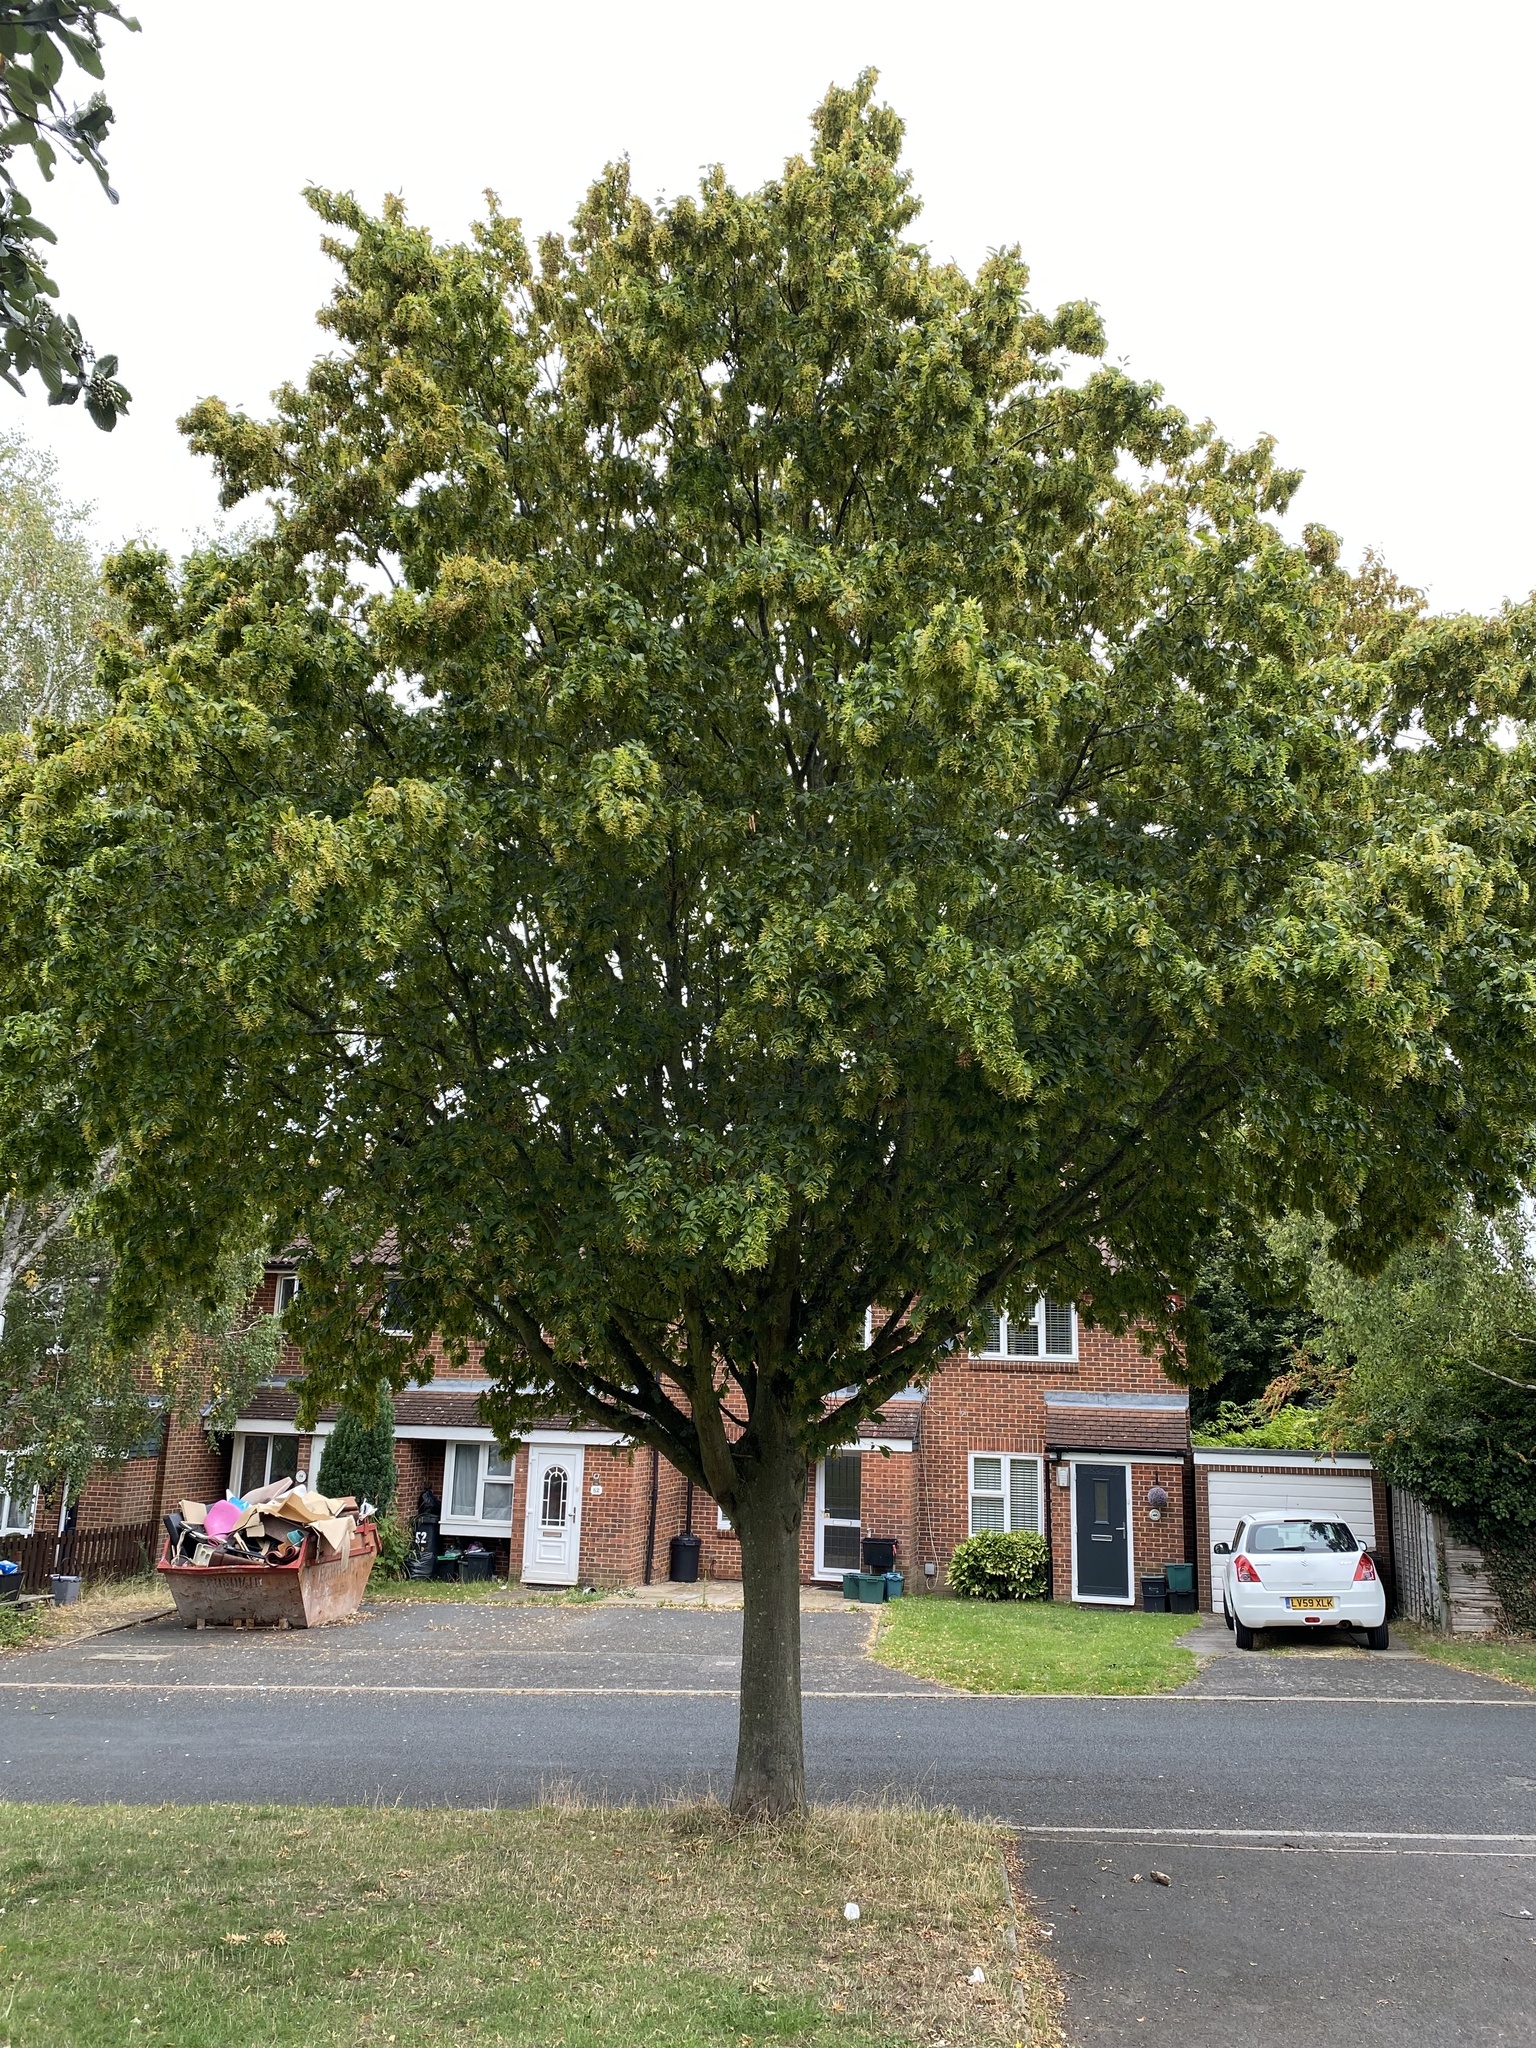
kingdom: Plantae
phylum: Tracheophyta
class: Magnoliopsida
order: Fagales
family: Betulaceae
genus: Carpinus
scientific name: Carpinus betulus
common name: Hornbeam
